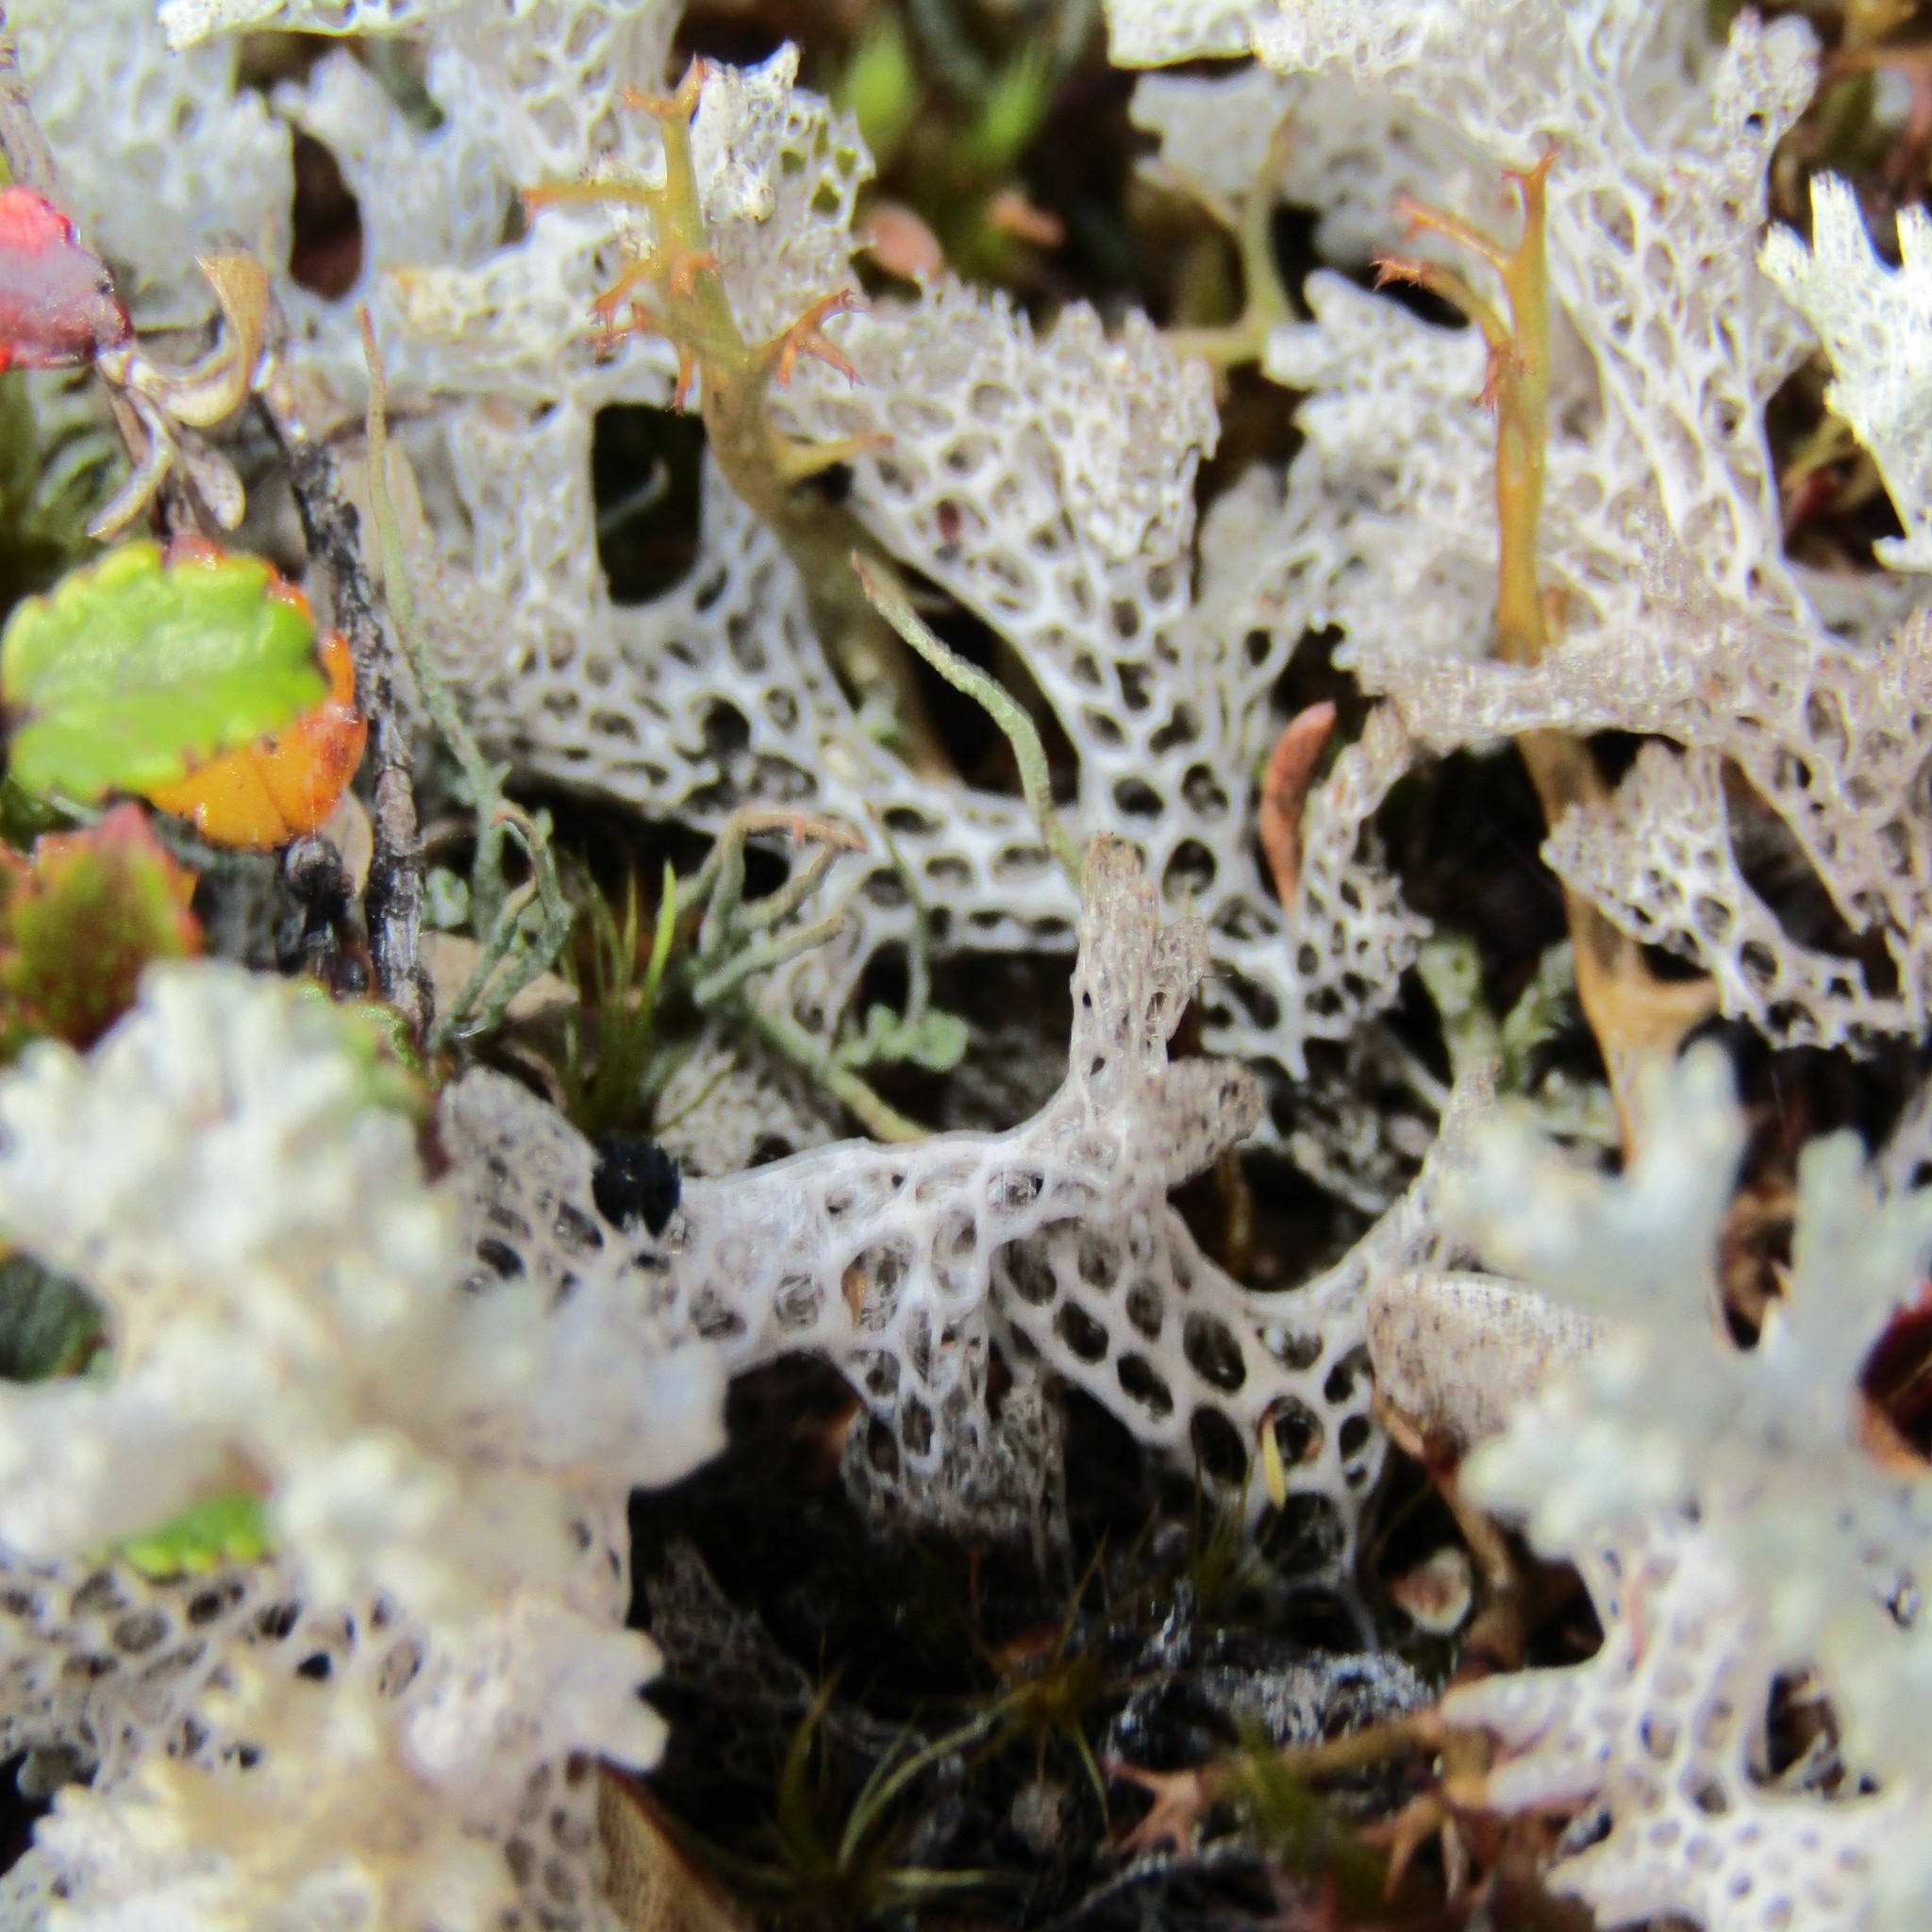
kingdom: Fungi
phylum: Ascomycota
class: Lecanoromycetes
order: Lecanorales
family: Cladoniaceae
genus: Pulchrocladia
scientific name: Pulchrocladia retipora
